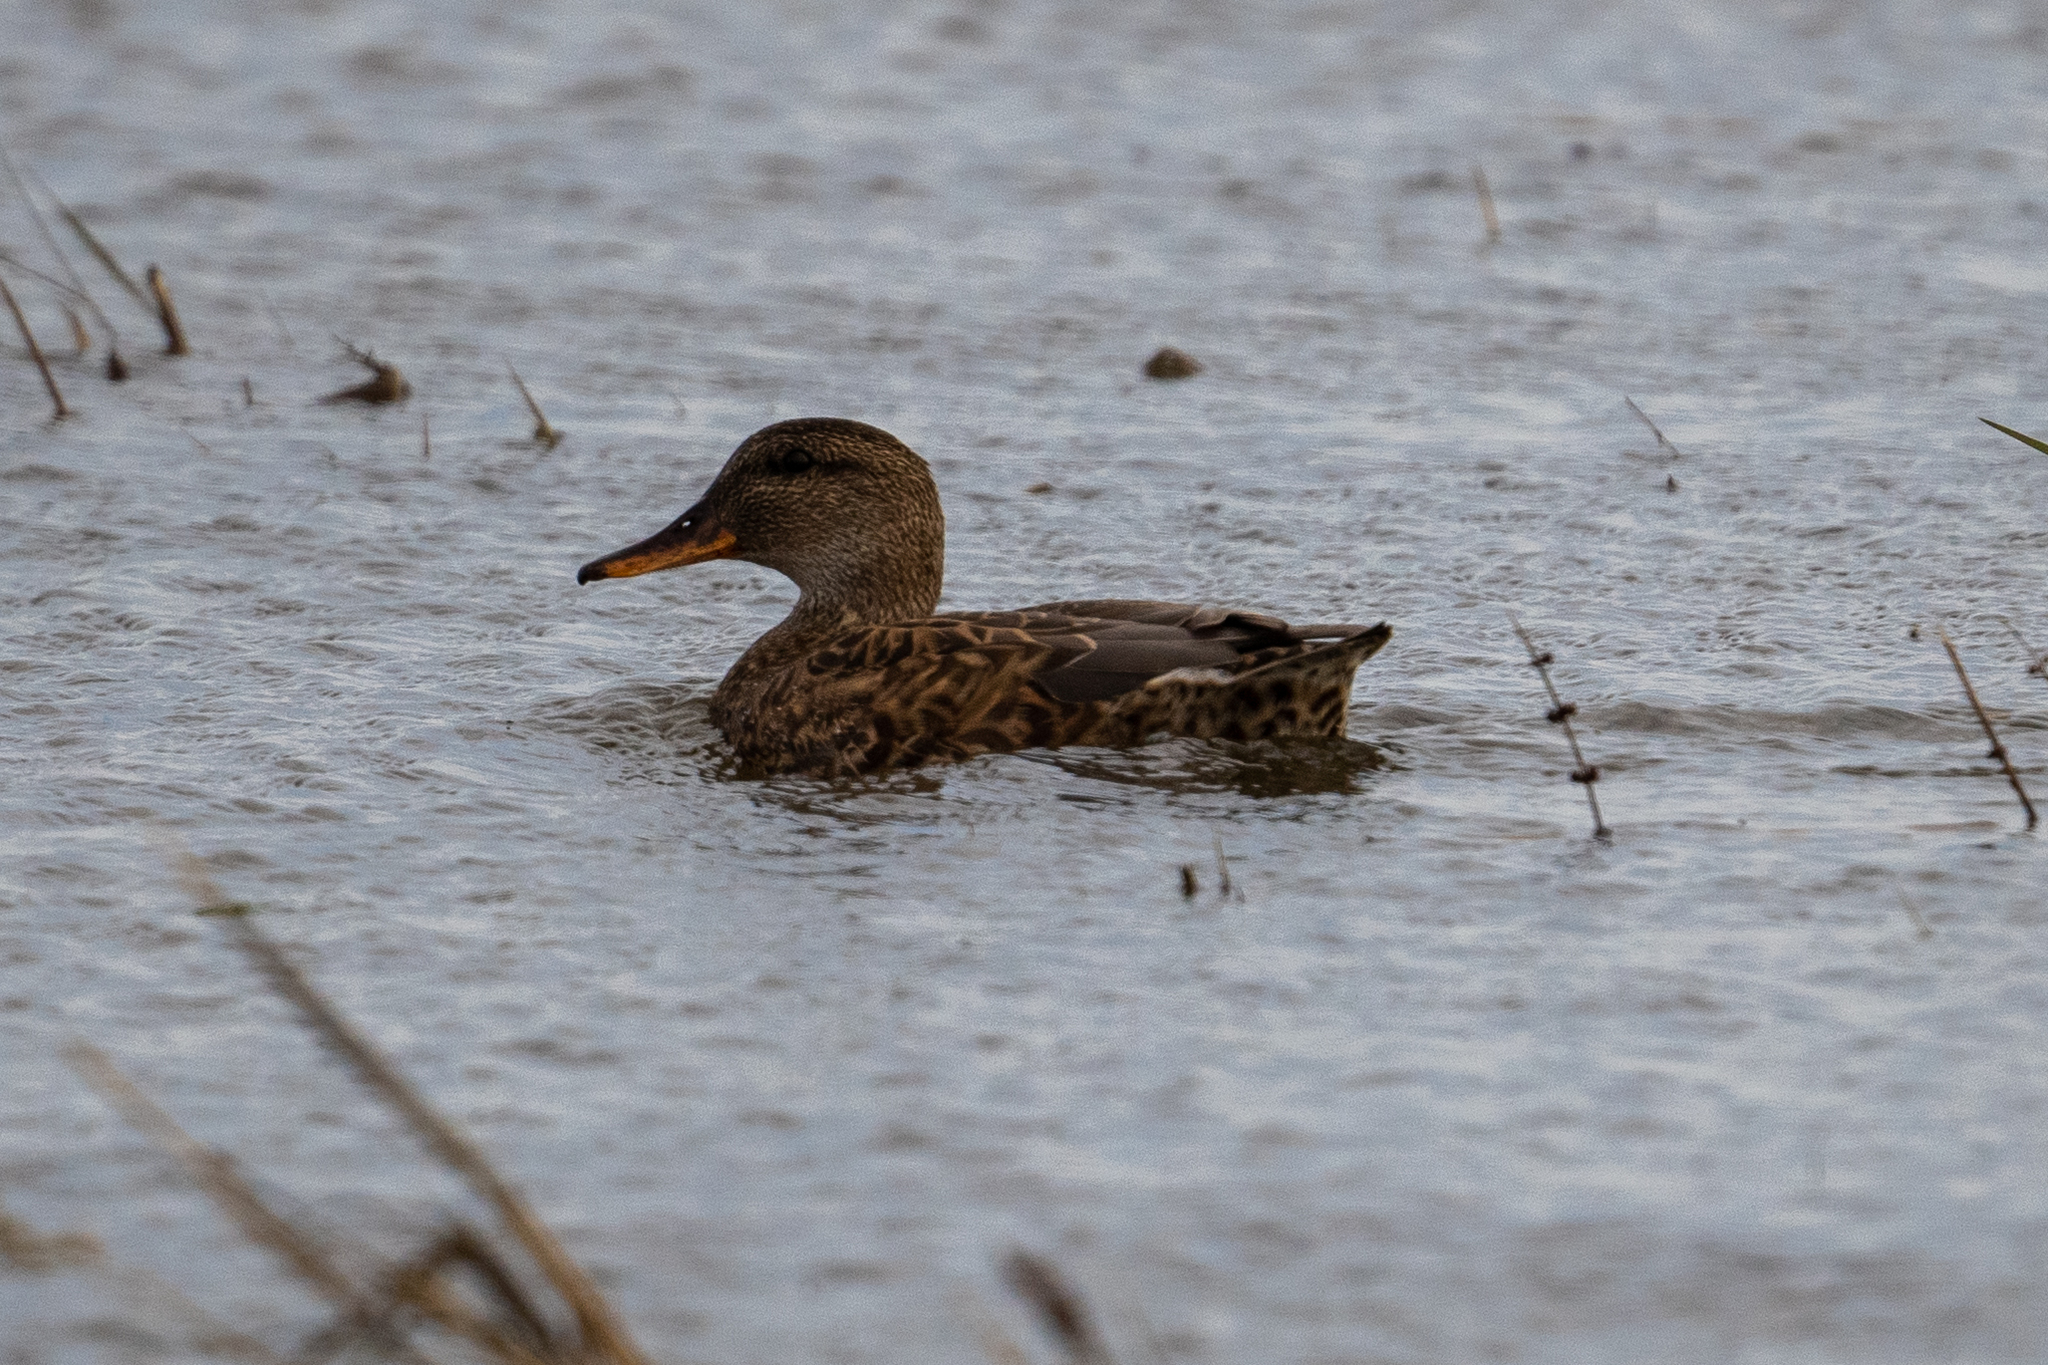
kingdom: Animalia
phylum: Chordata
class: Aves
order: Anseriformes
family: Anatidae
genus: Mareca
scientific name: Mareca strepera
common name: Gadwall
